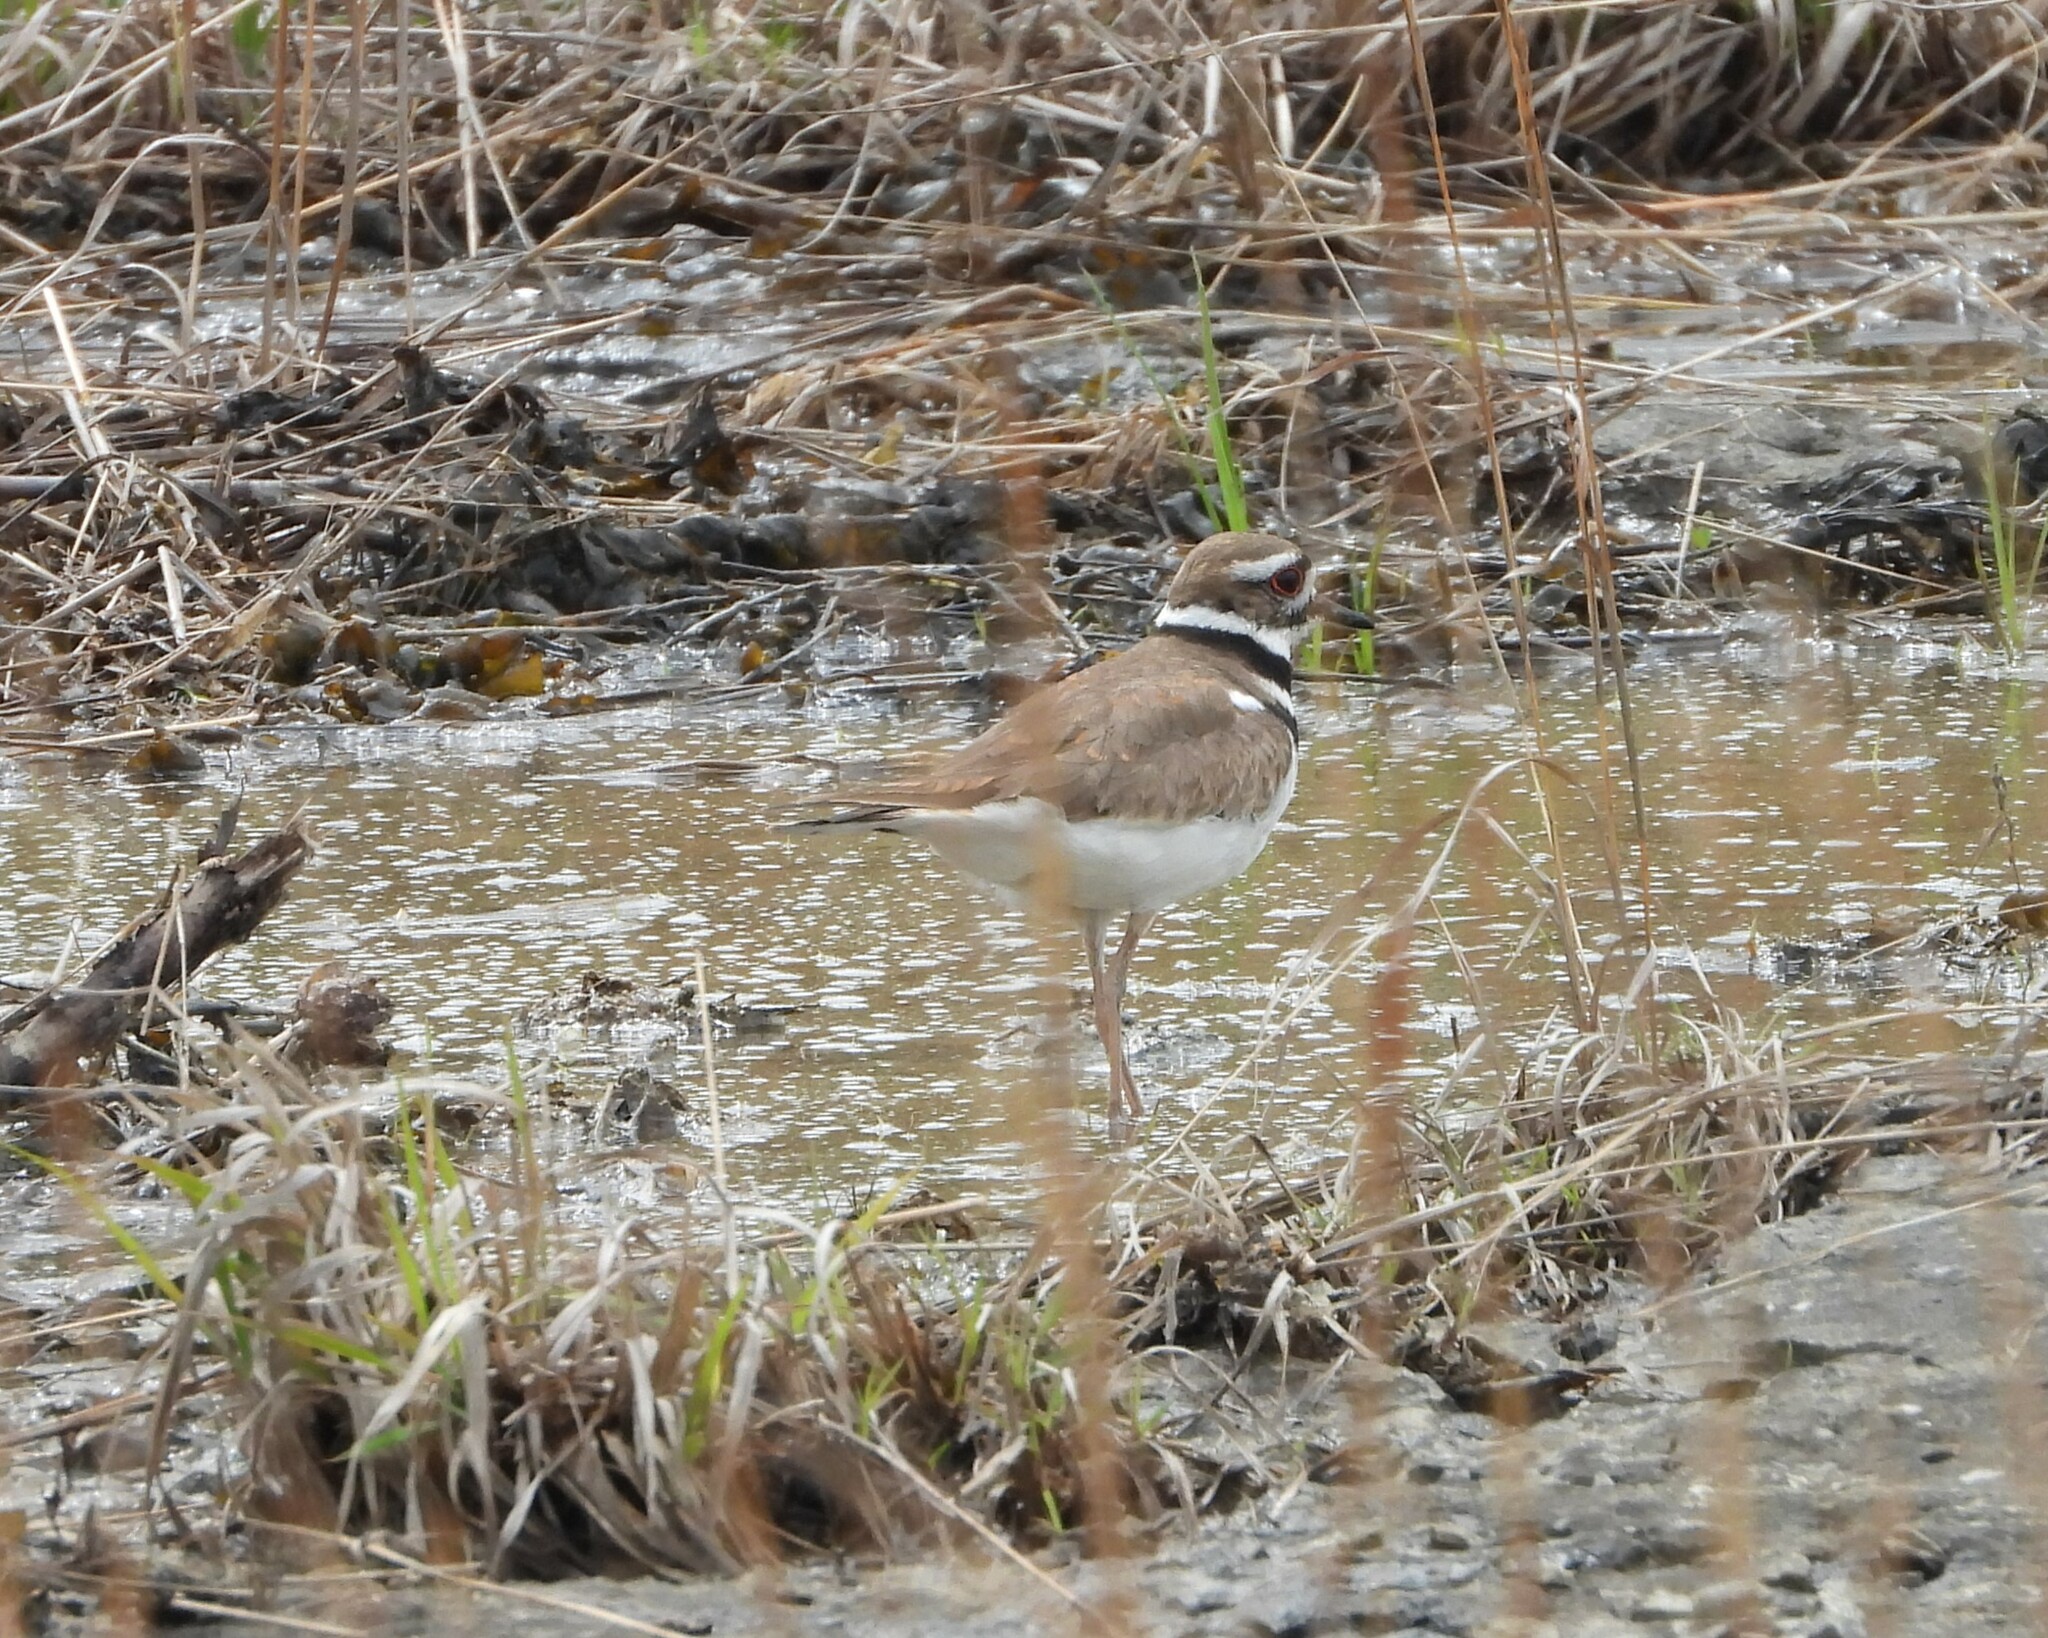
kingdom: Animalia
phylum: Chordata
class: Aves
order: Charadriiformes
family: Charadriidae
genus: Charadrius
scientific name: Charadrius vociferus
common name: Killdeer
